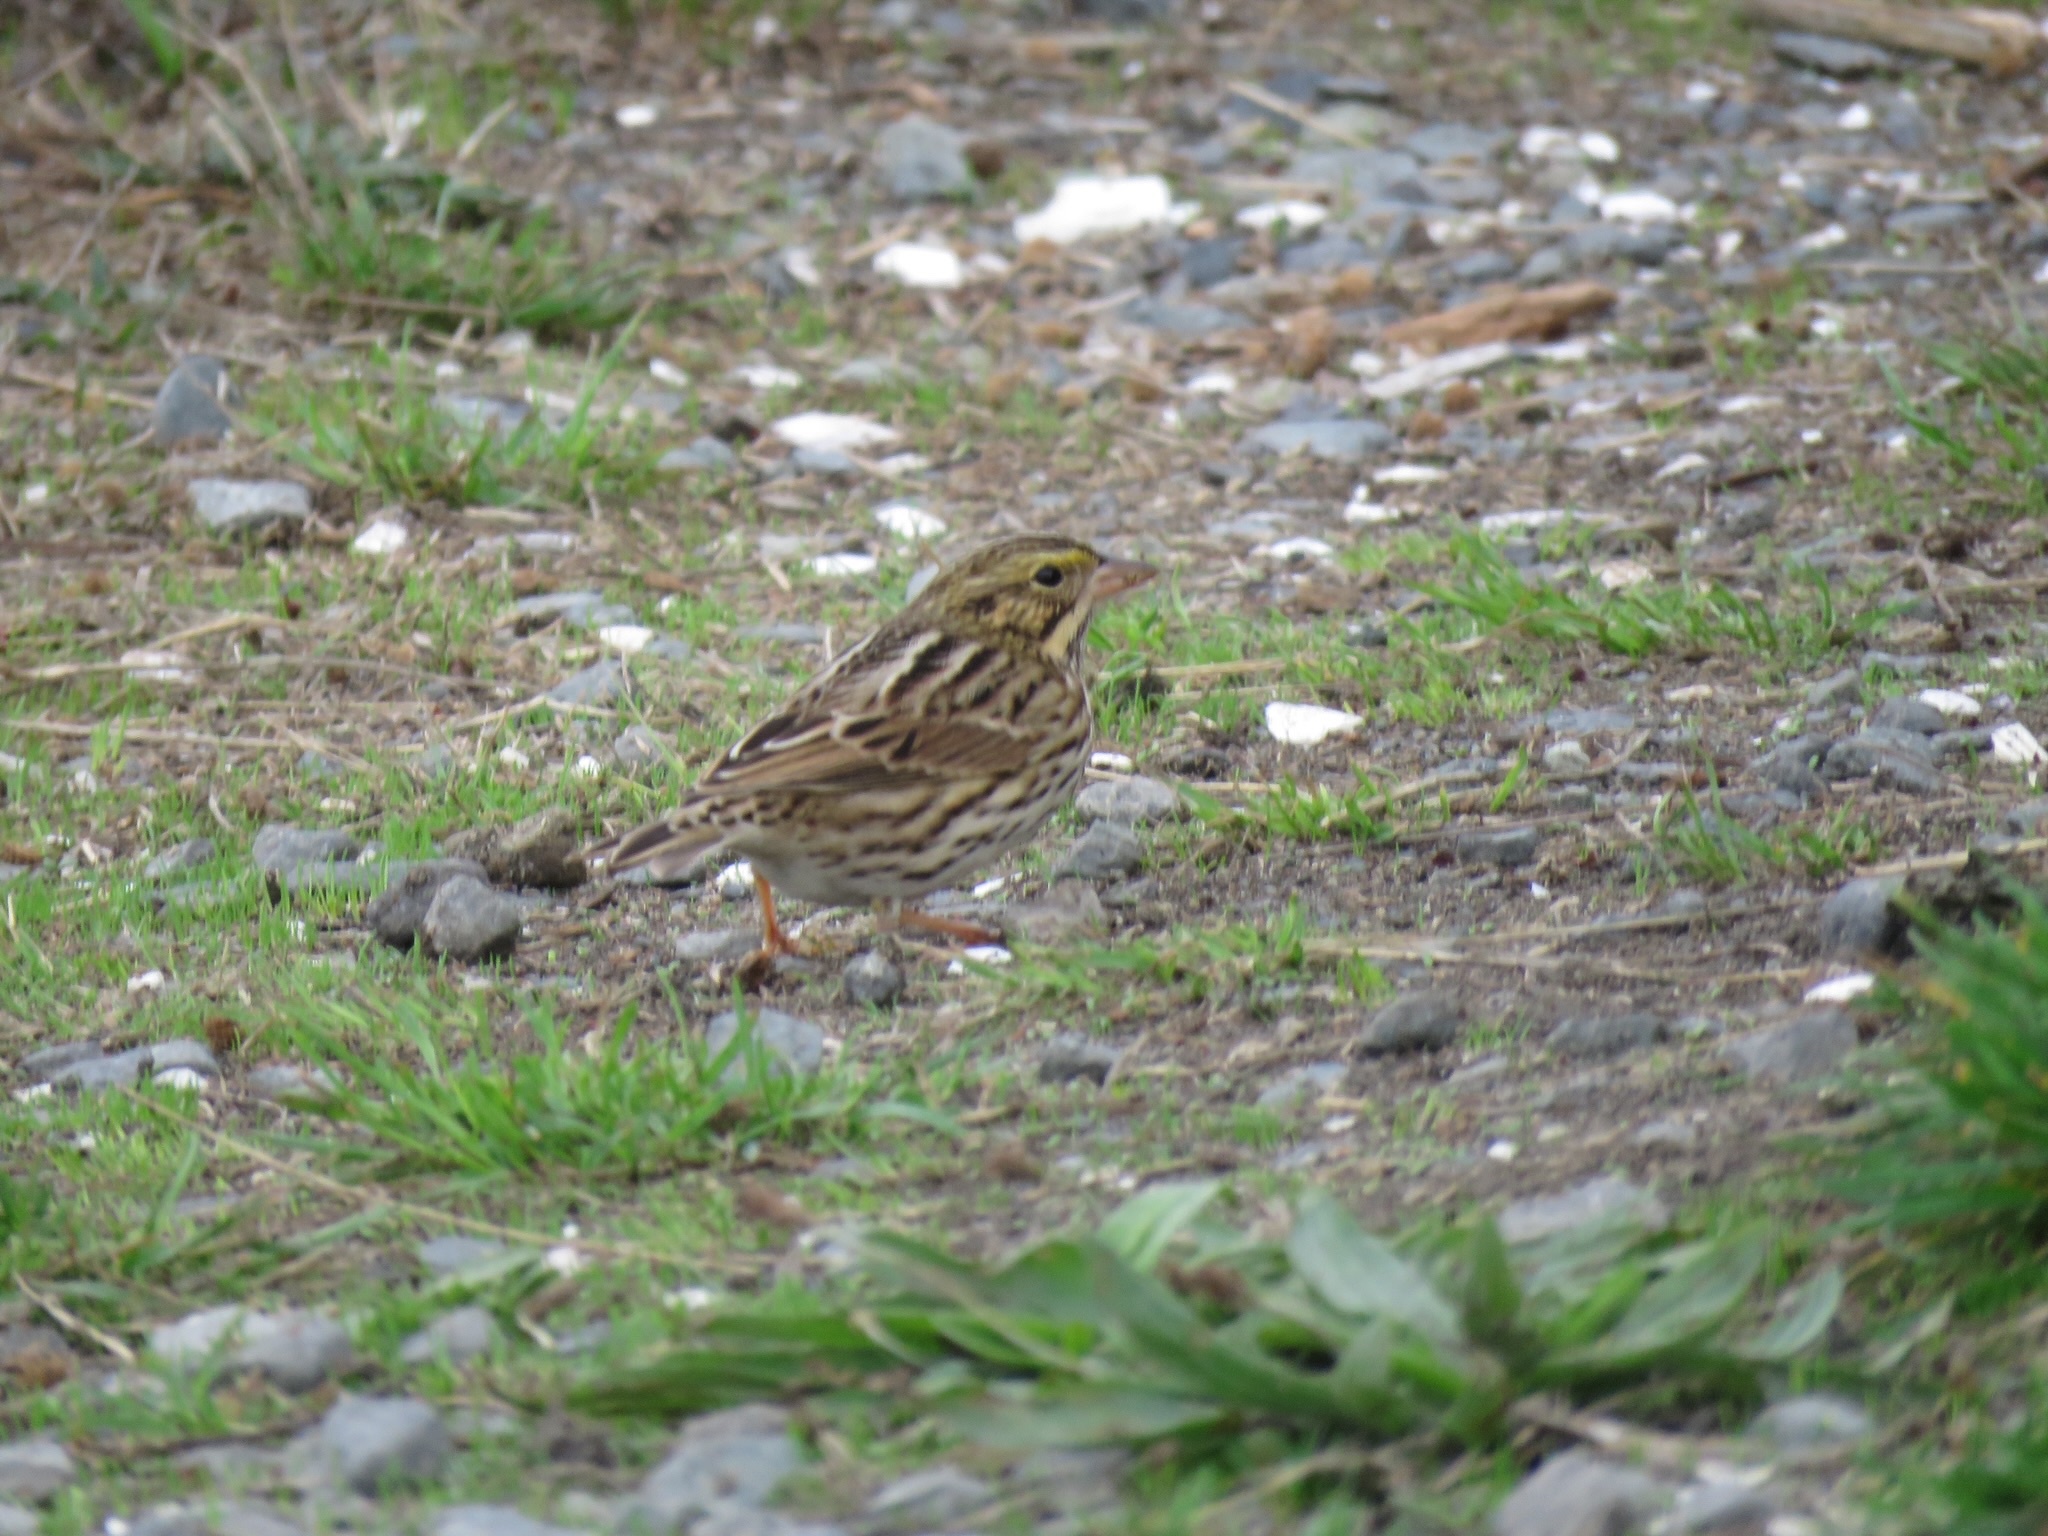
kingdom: Animalia
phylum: Chordata
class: Aves
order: Passeriformes
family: Passerellidae
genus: Passerculus
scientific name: Passerculus sandwichensis
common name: Savannah sparrow
